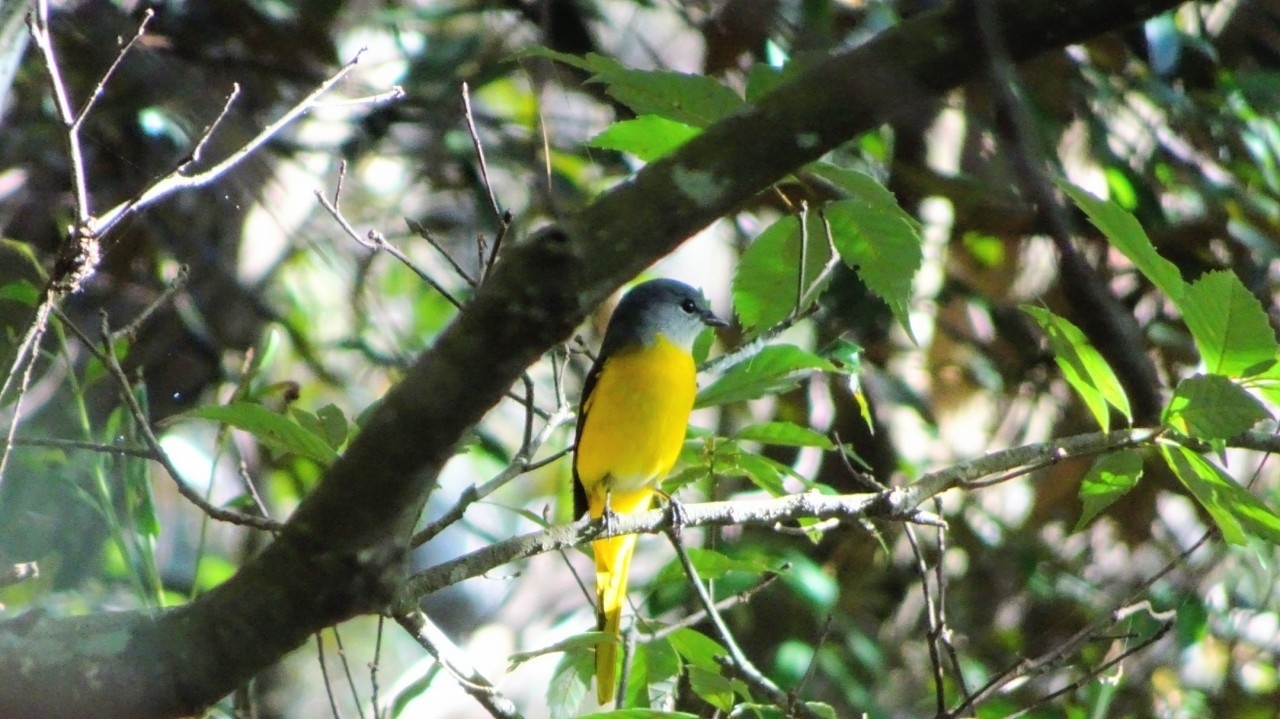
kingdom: Animalia
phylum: Chordata
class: Aves
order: Passeriformes
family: Campephagidae
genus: Pericrocotus
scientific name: Pericrocotus solaris
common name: Grey-chinned minivet
